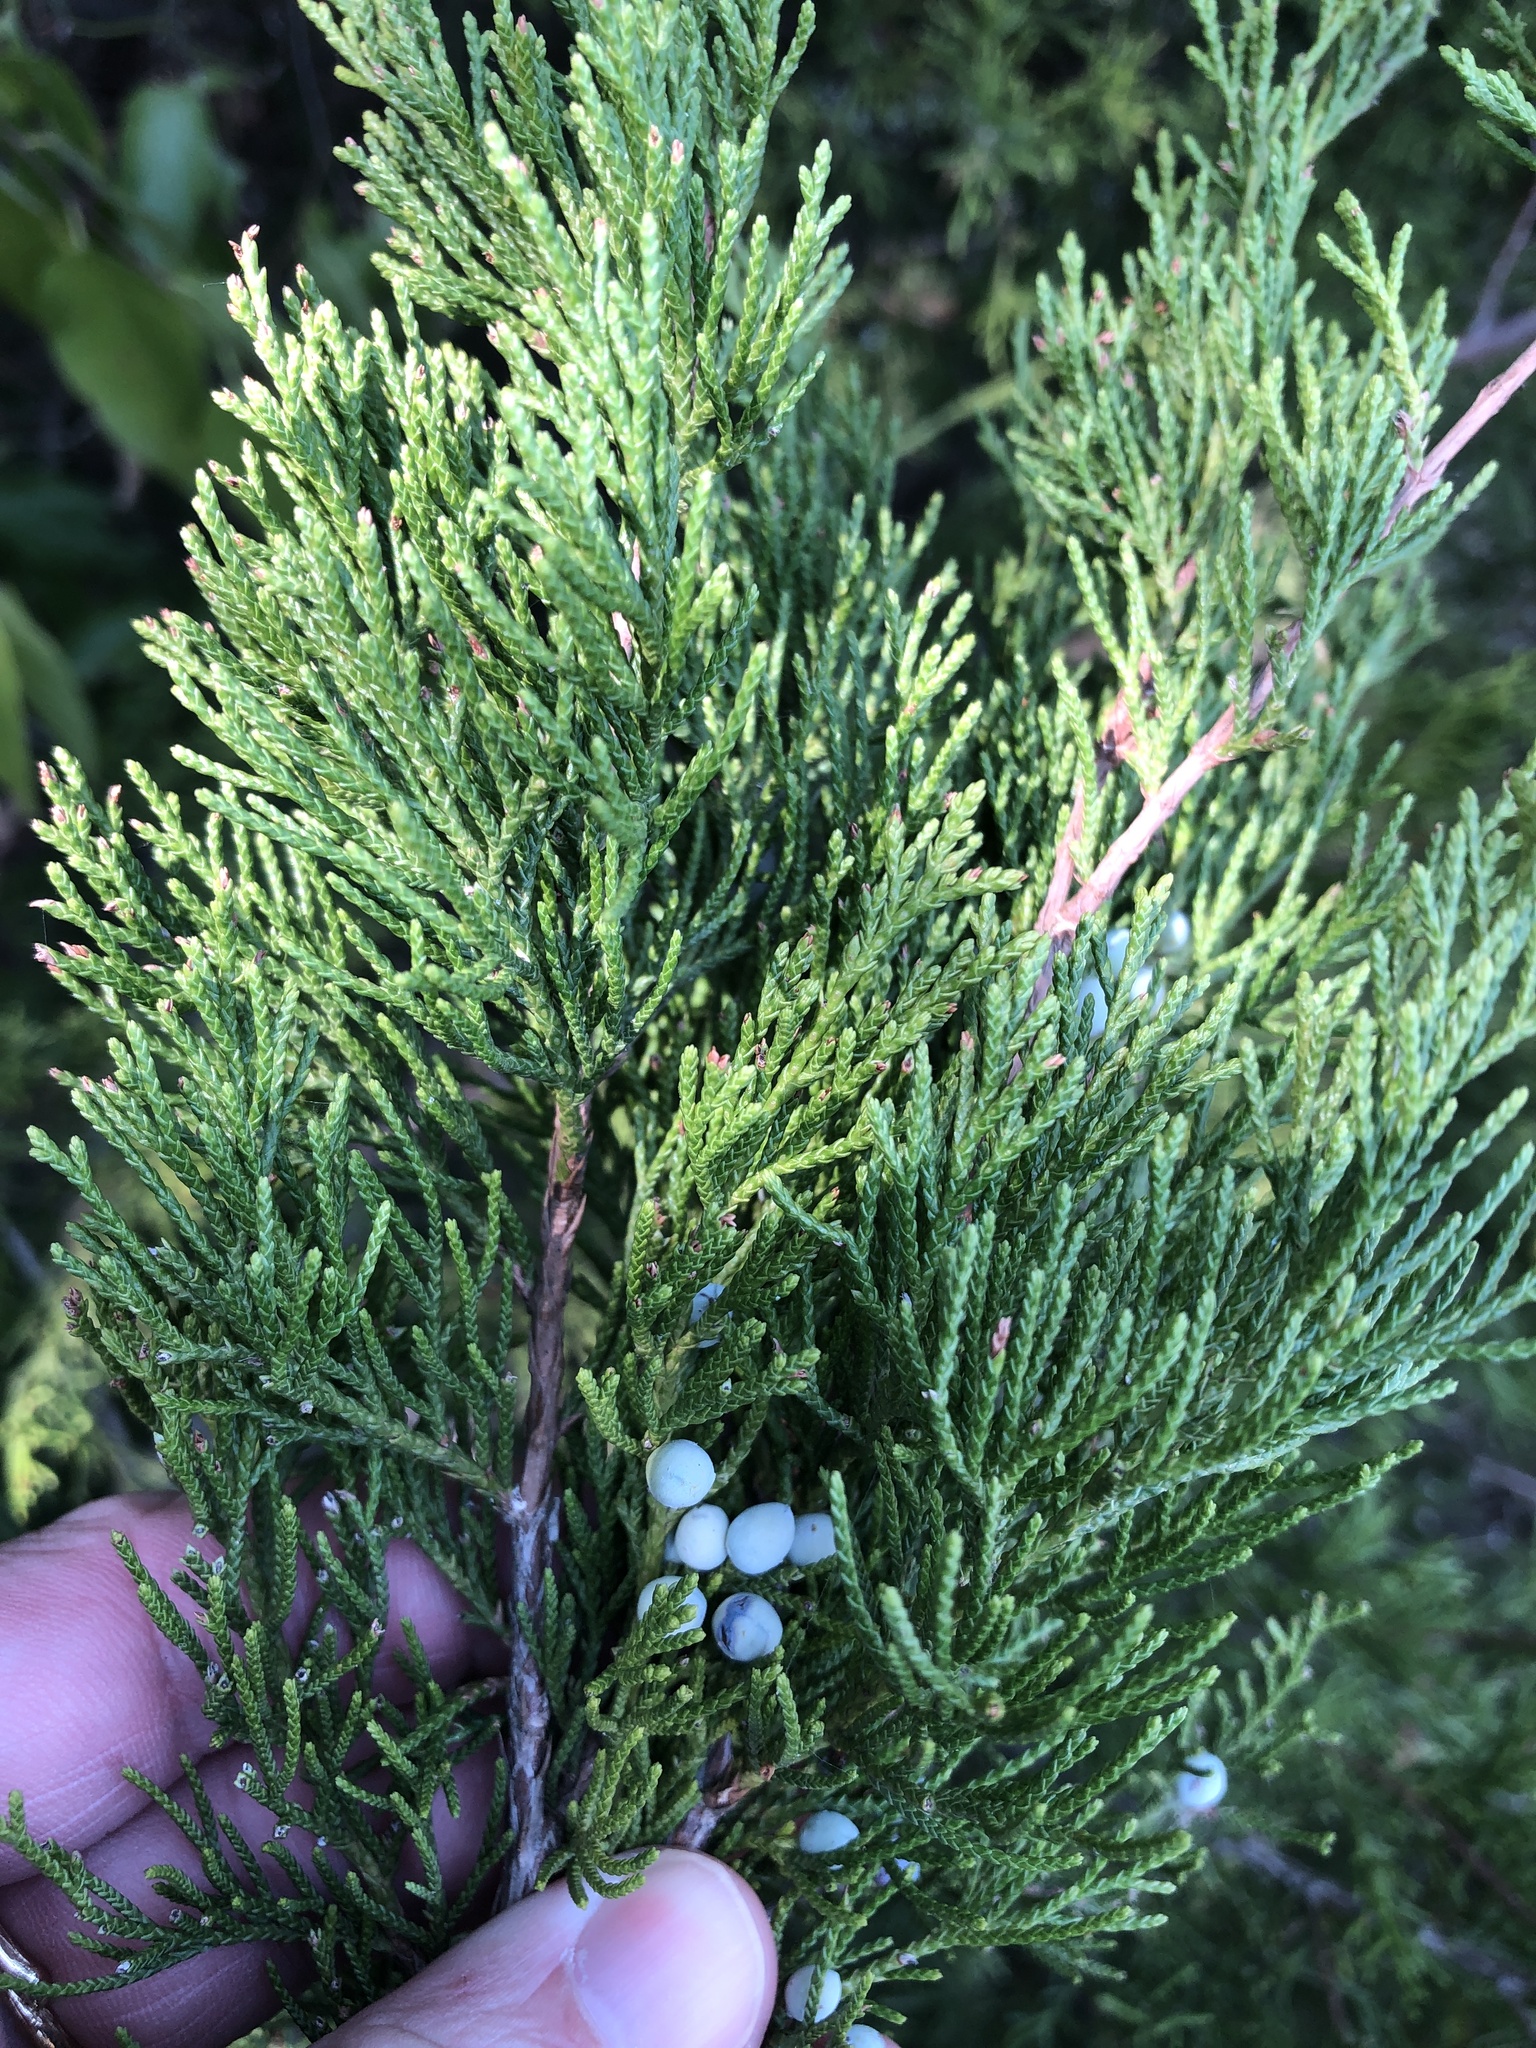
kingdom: Plantae
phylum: Tracheophyta
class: Pinopsida
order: Pinales
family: Cupressaceae
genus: Juniperus
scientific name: Juniperus virginiana
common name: Red juniper
